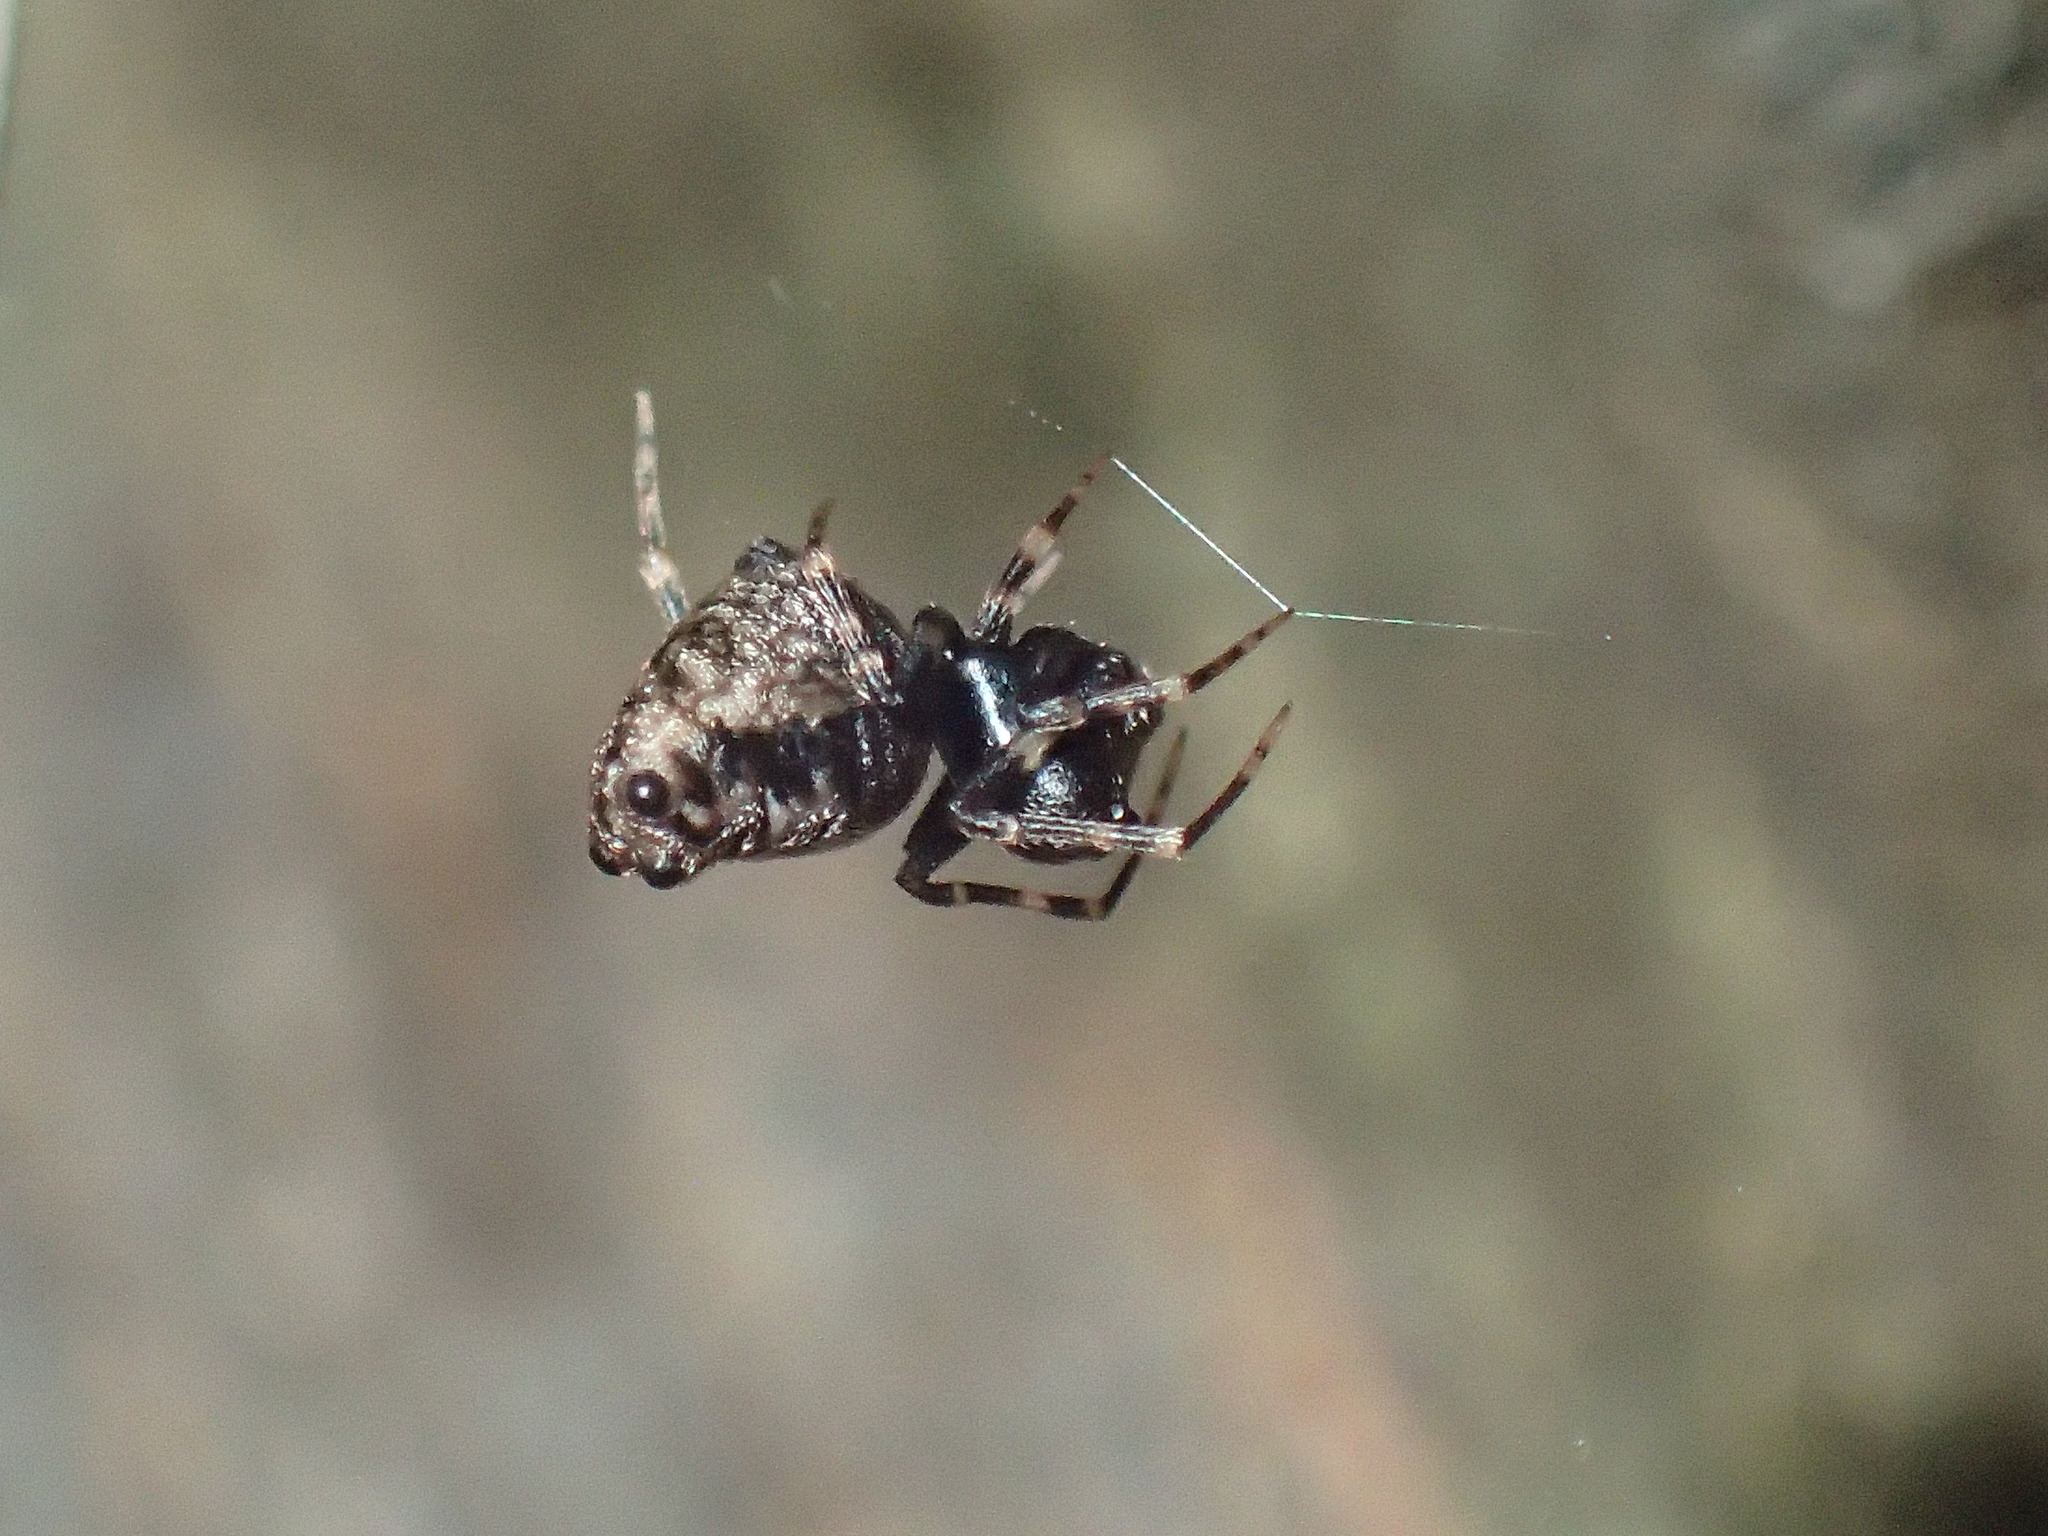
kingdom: Animalia
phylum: Arthropoda
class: Arachnida
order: Araneae
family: Theridiidae
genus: Chorizopella
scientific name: Chorizopella tragardhi
